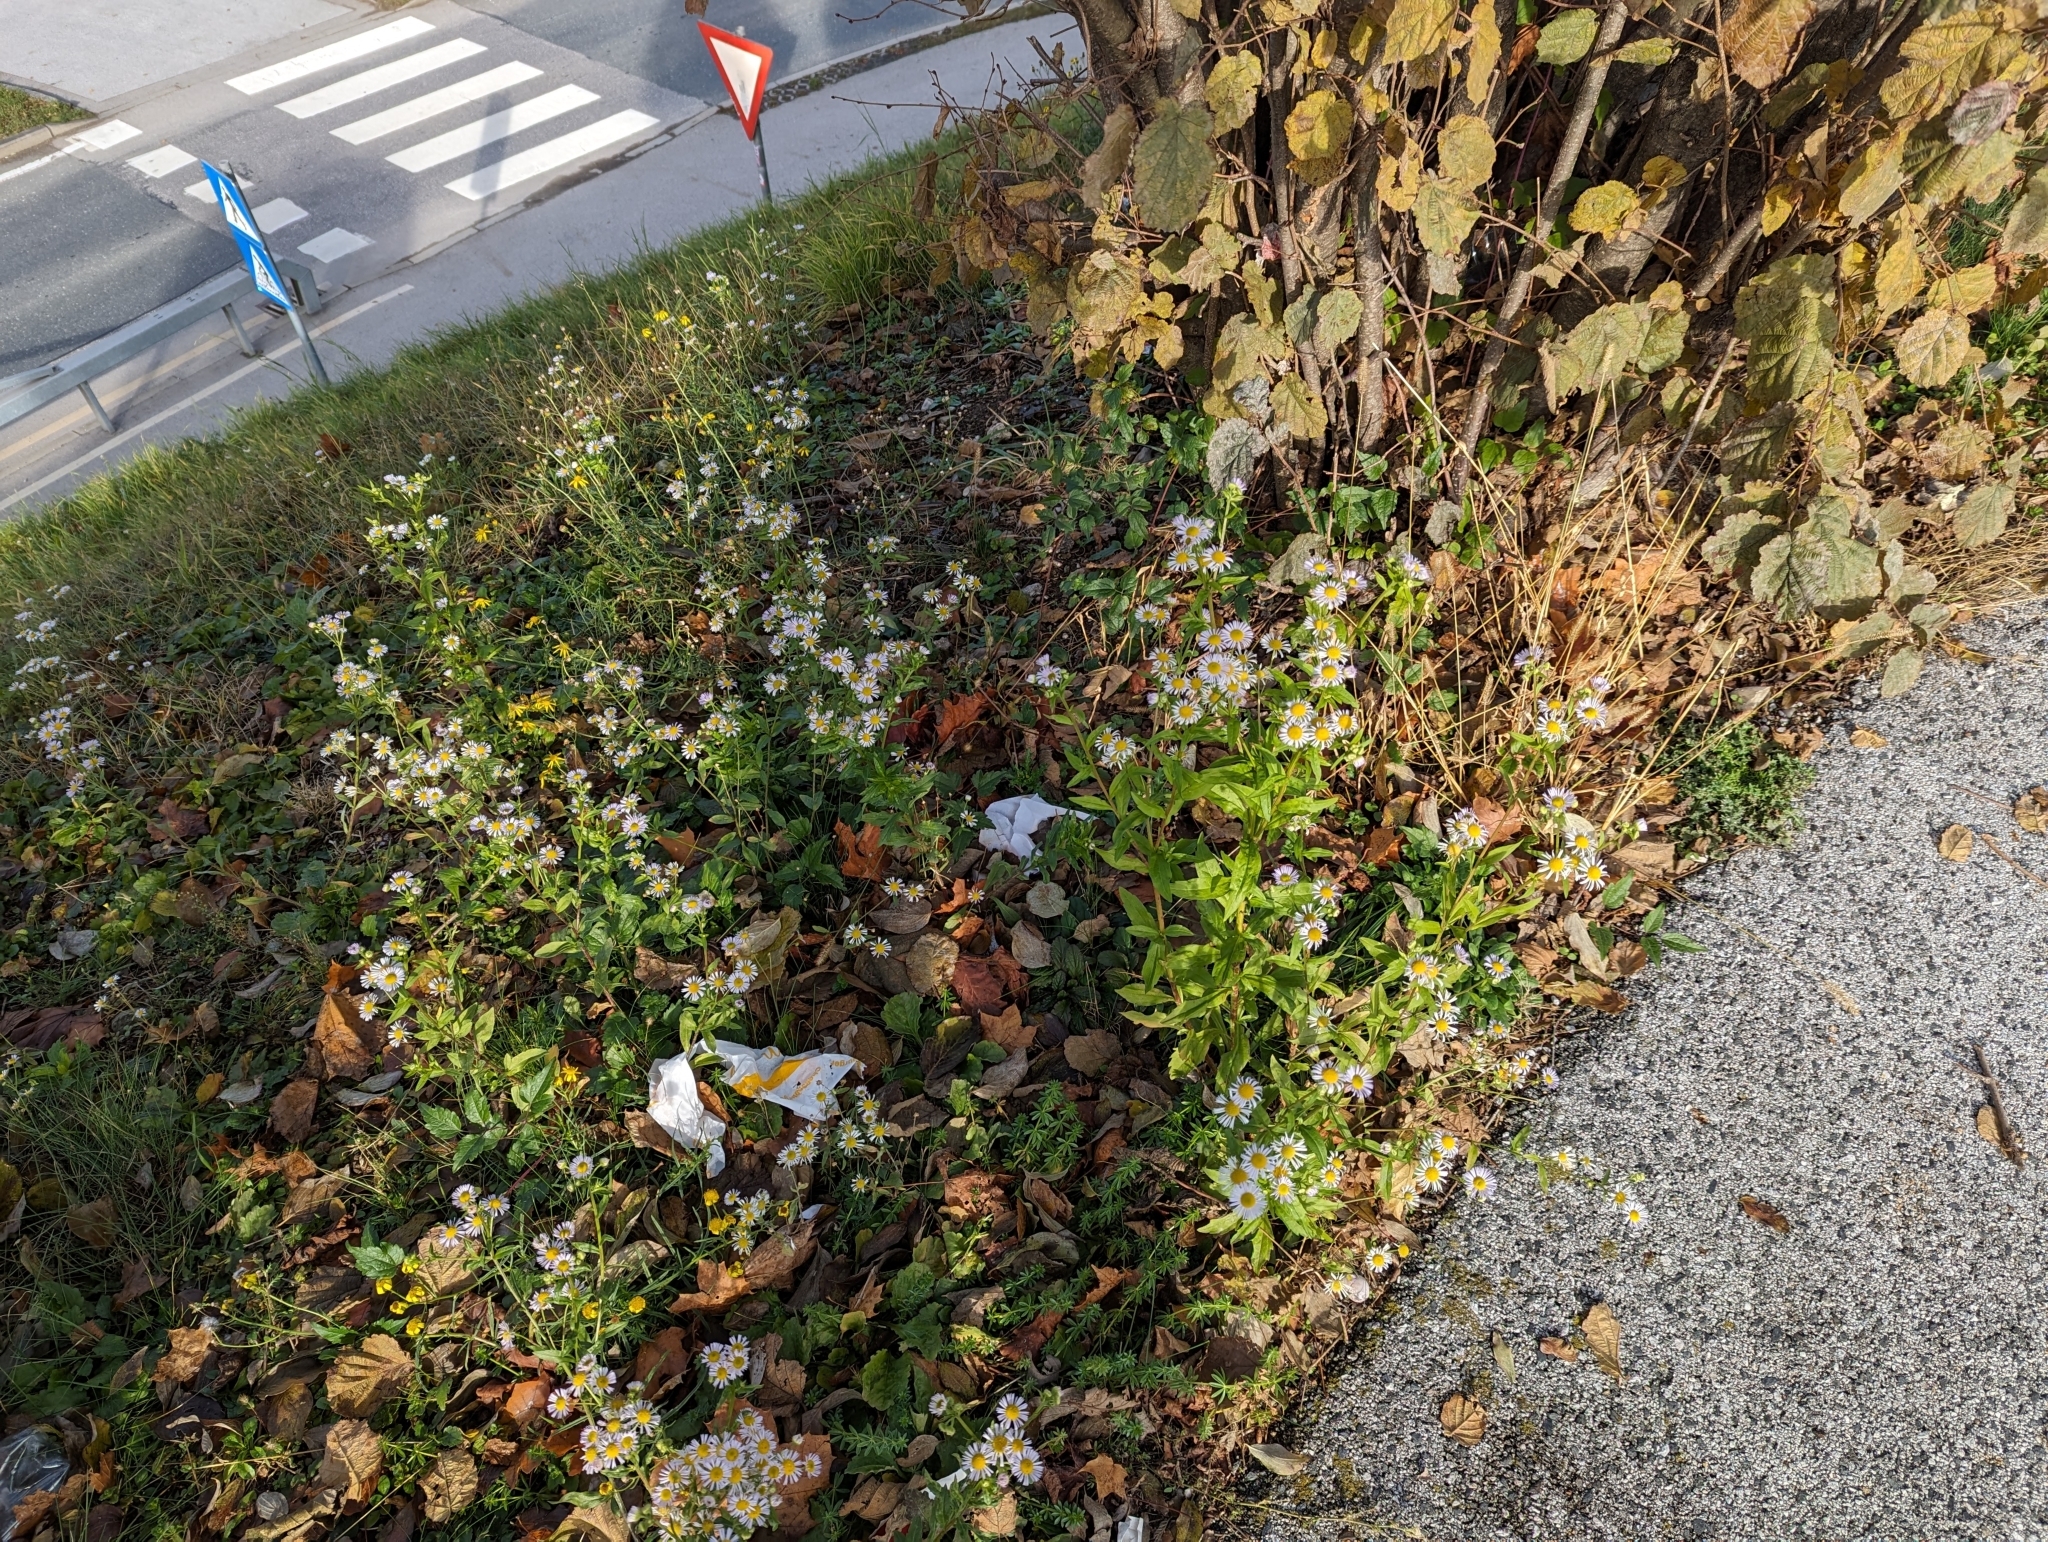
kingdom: Plantae
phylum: Tracheophyta
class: Magnoliopsida
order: Asterales
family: Asteraceae
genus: Erigeron
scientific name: Erigeron annuus
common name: Tall fleabane
